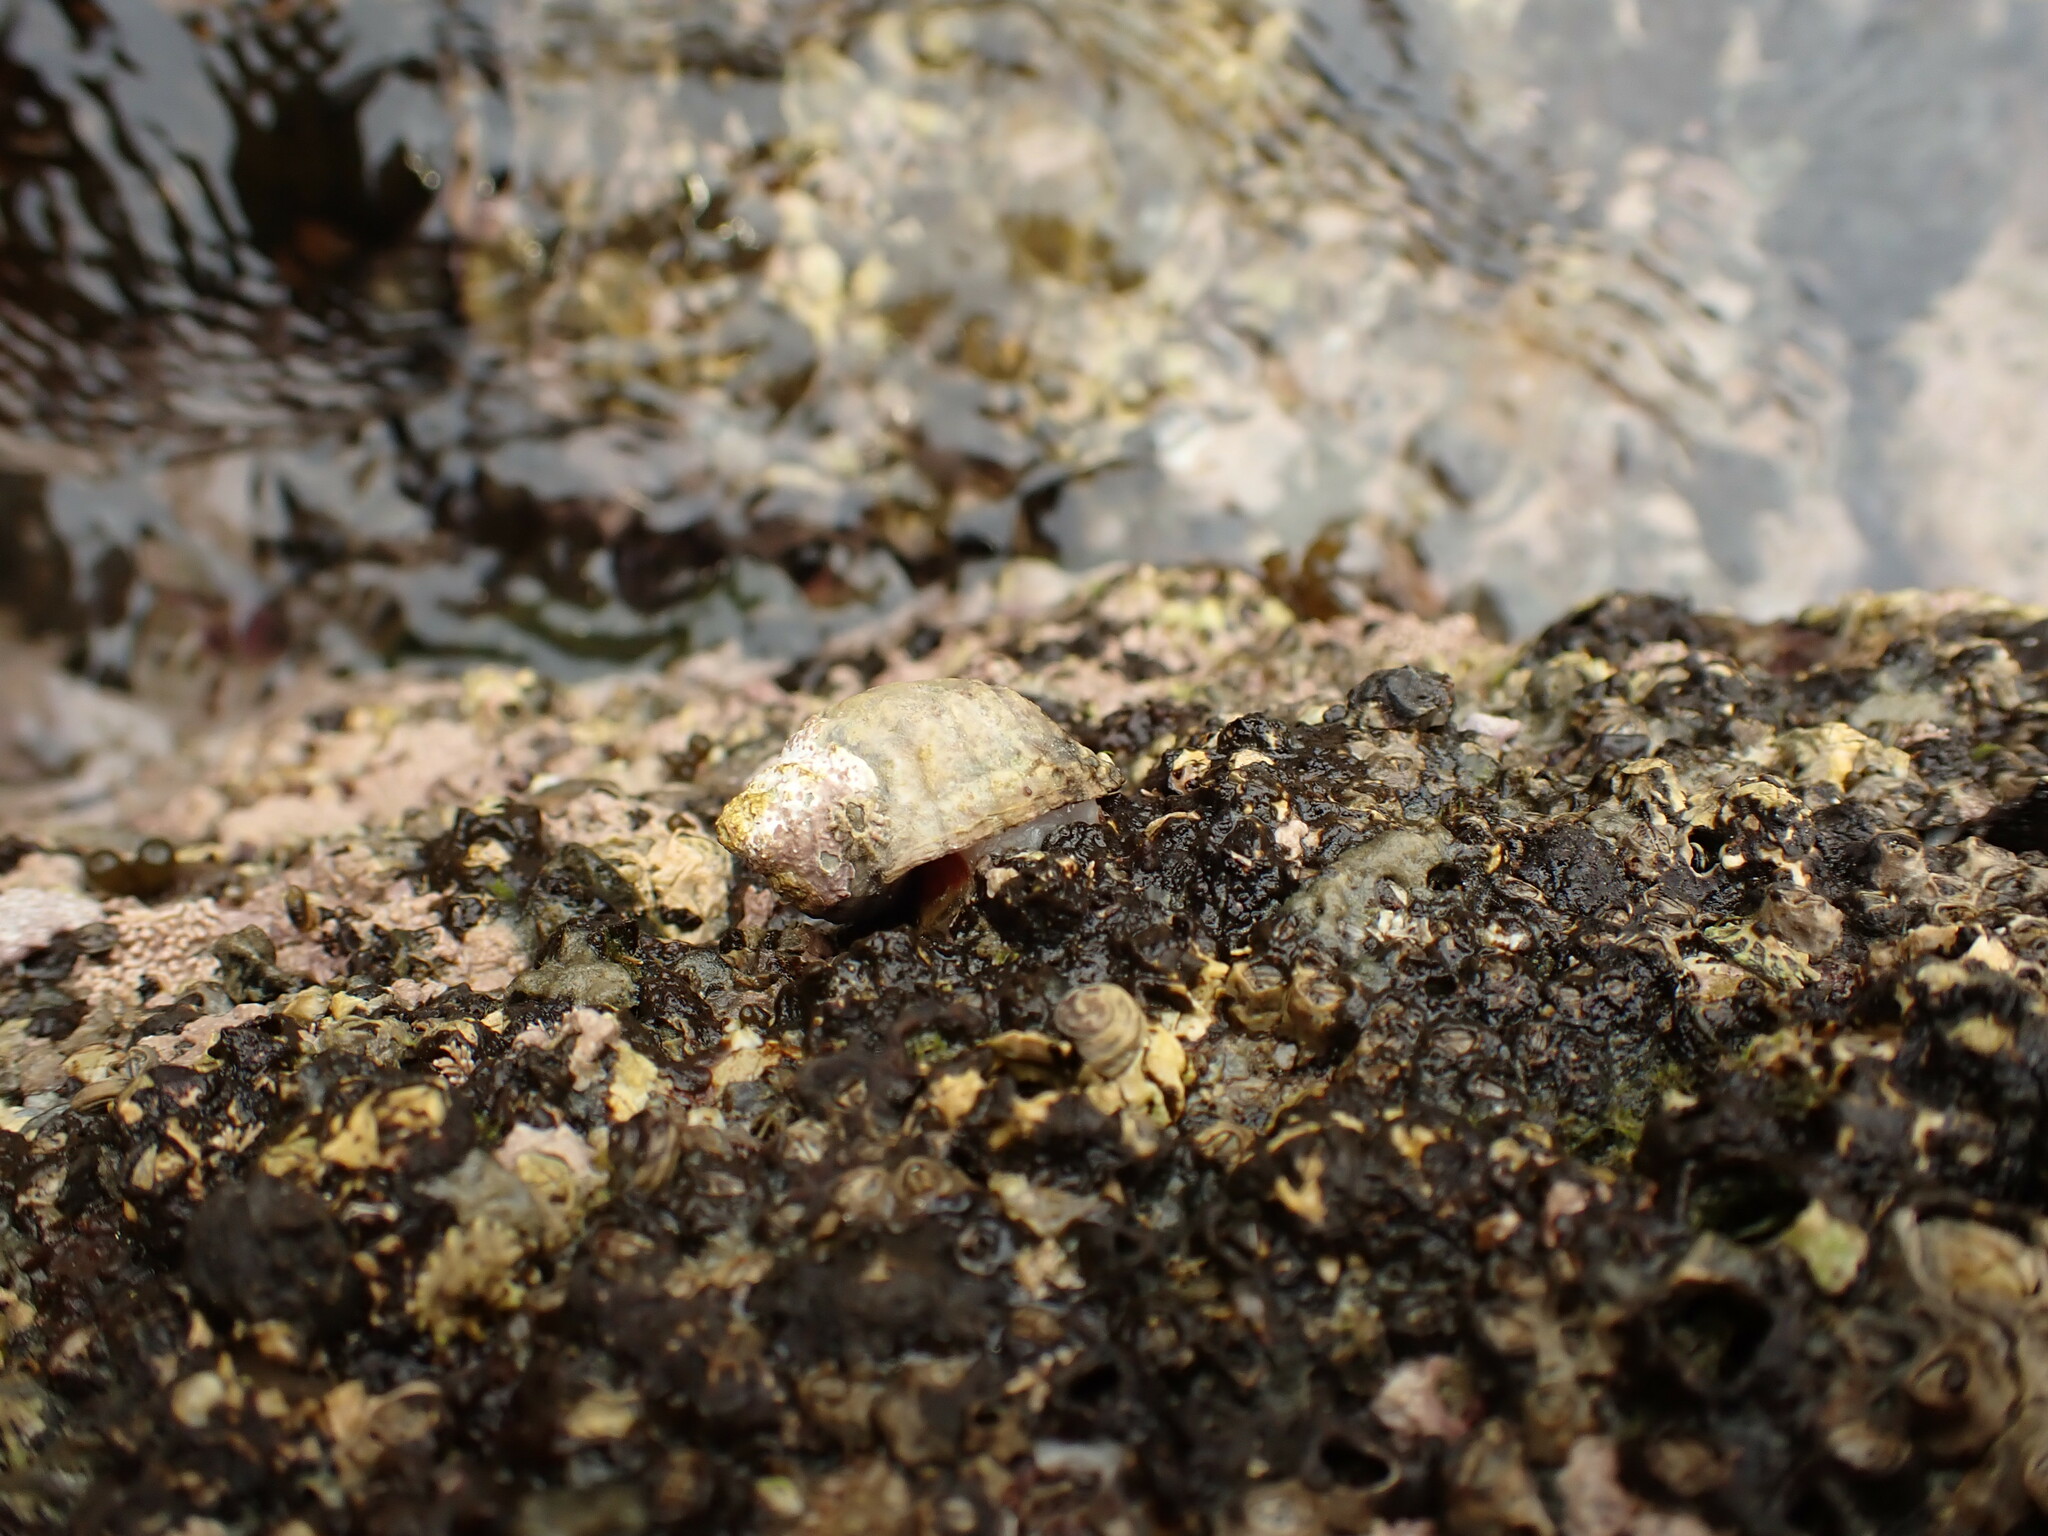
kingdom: Animalia
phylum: Mollusca
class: Gastropoda
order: Neogastropoda
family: Muricidae
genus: Haustrum
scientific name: Haustrum lacunosum
